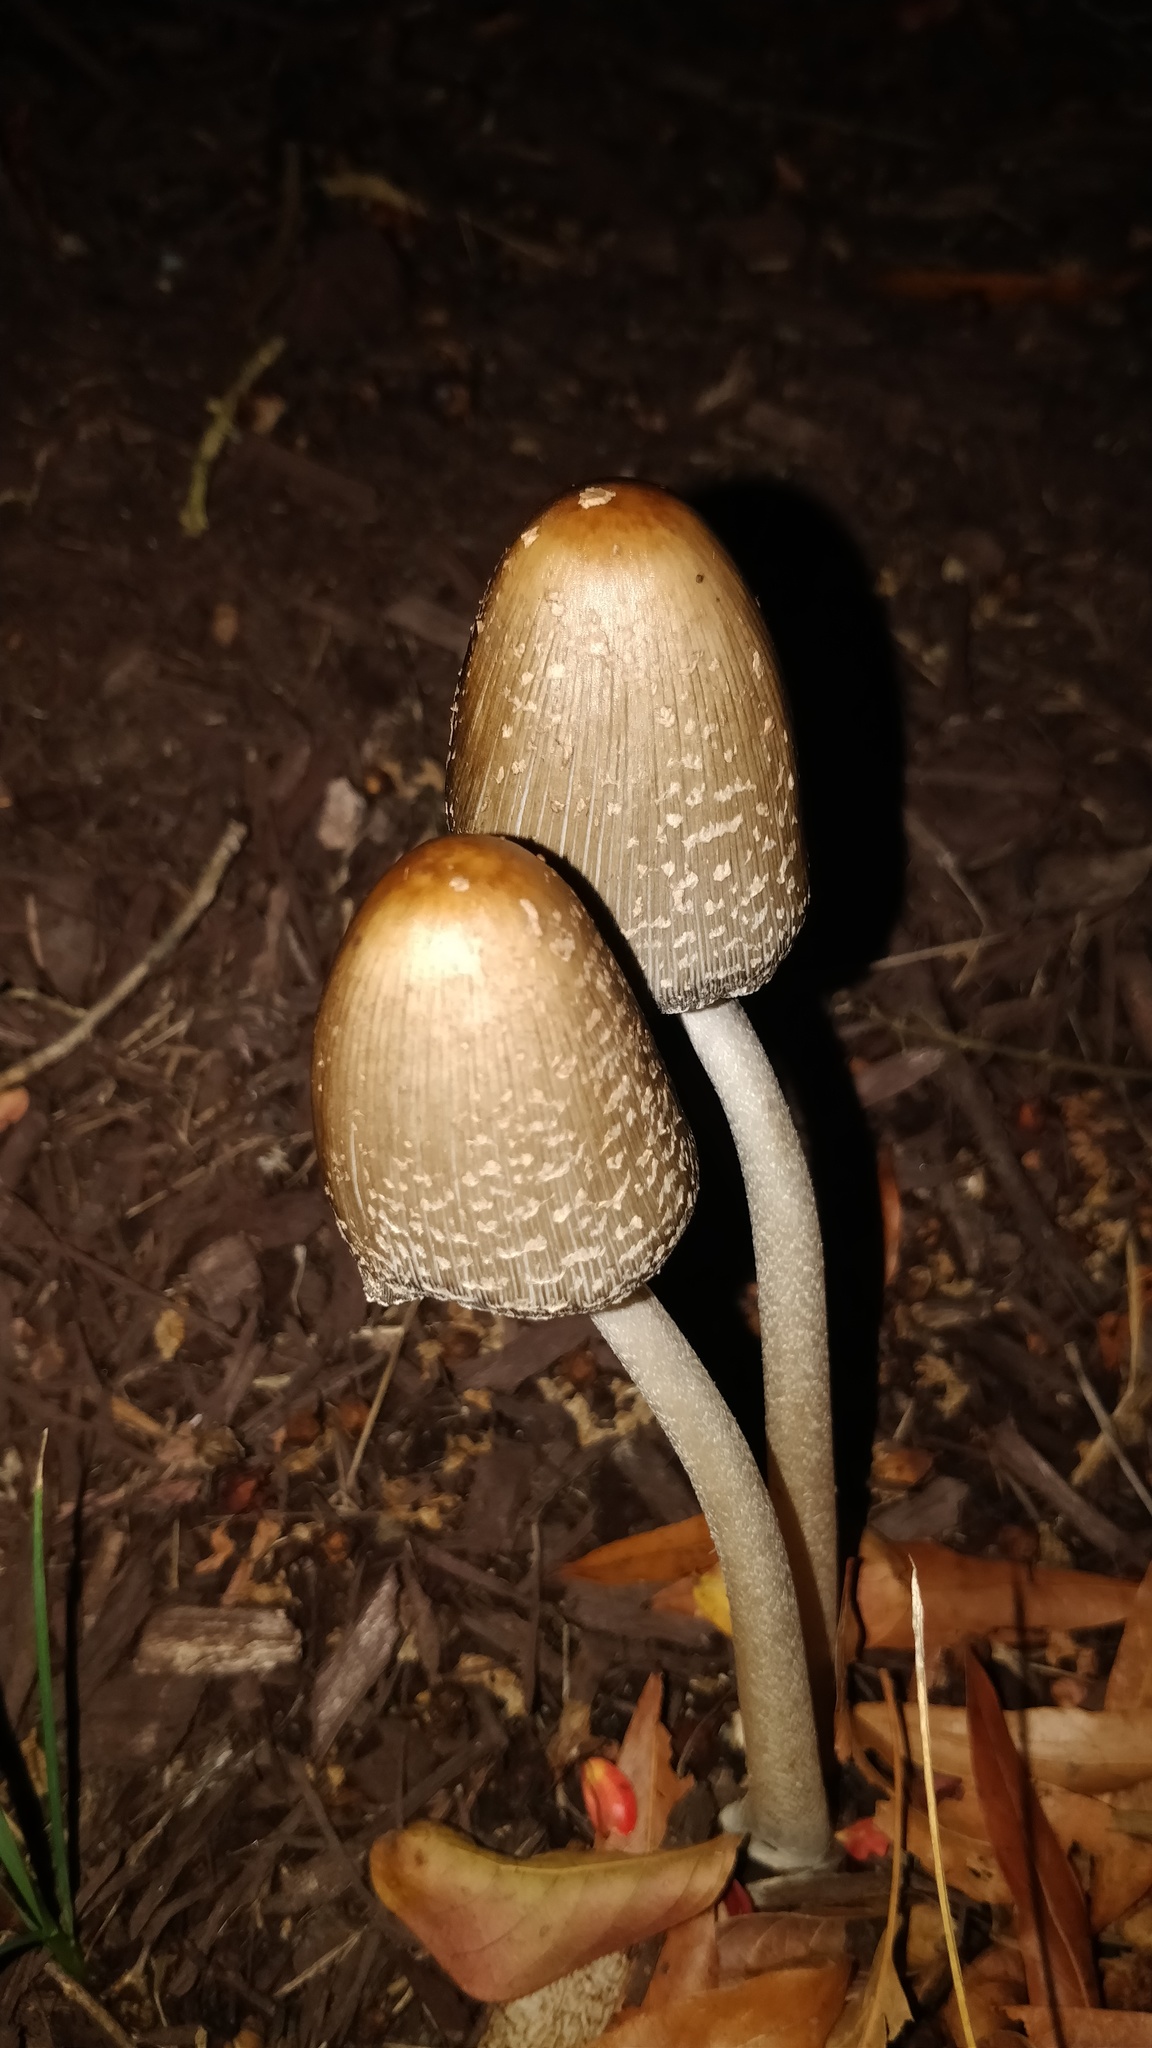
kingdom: Fungi
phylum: Basidiomycota
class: Agaricomycetes
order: Agaricales
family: Psathyrellaceae
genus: Coprinopsis
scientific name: Coprinopsis picacea
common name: Magpie inkcap
